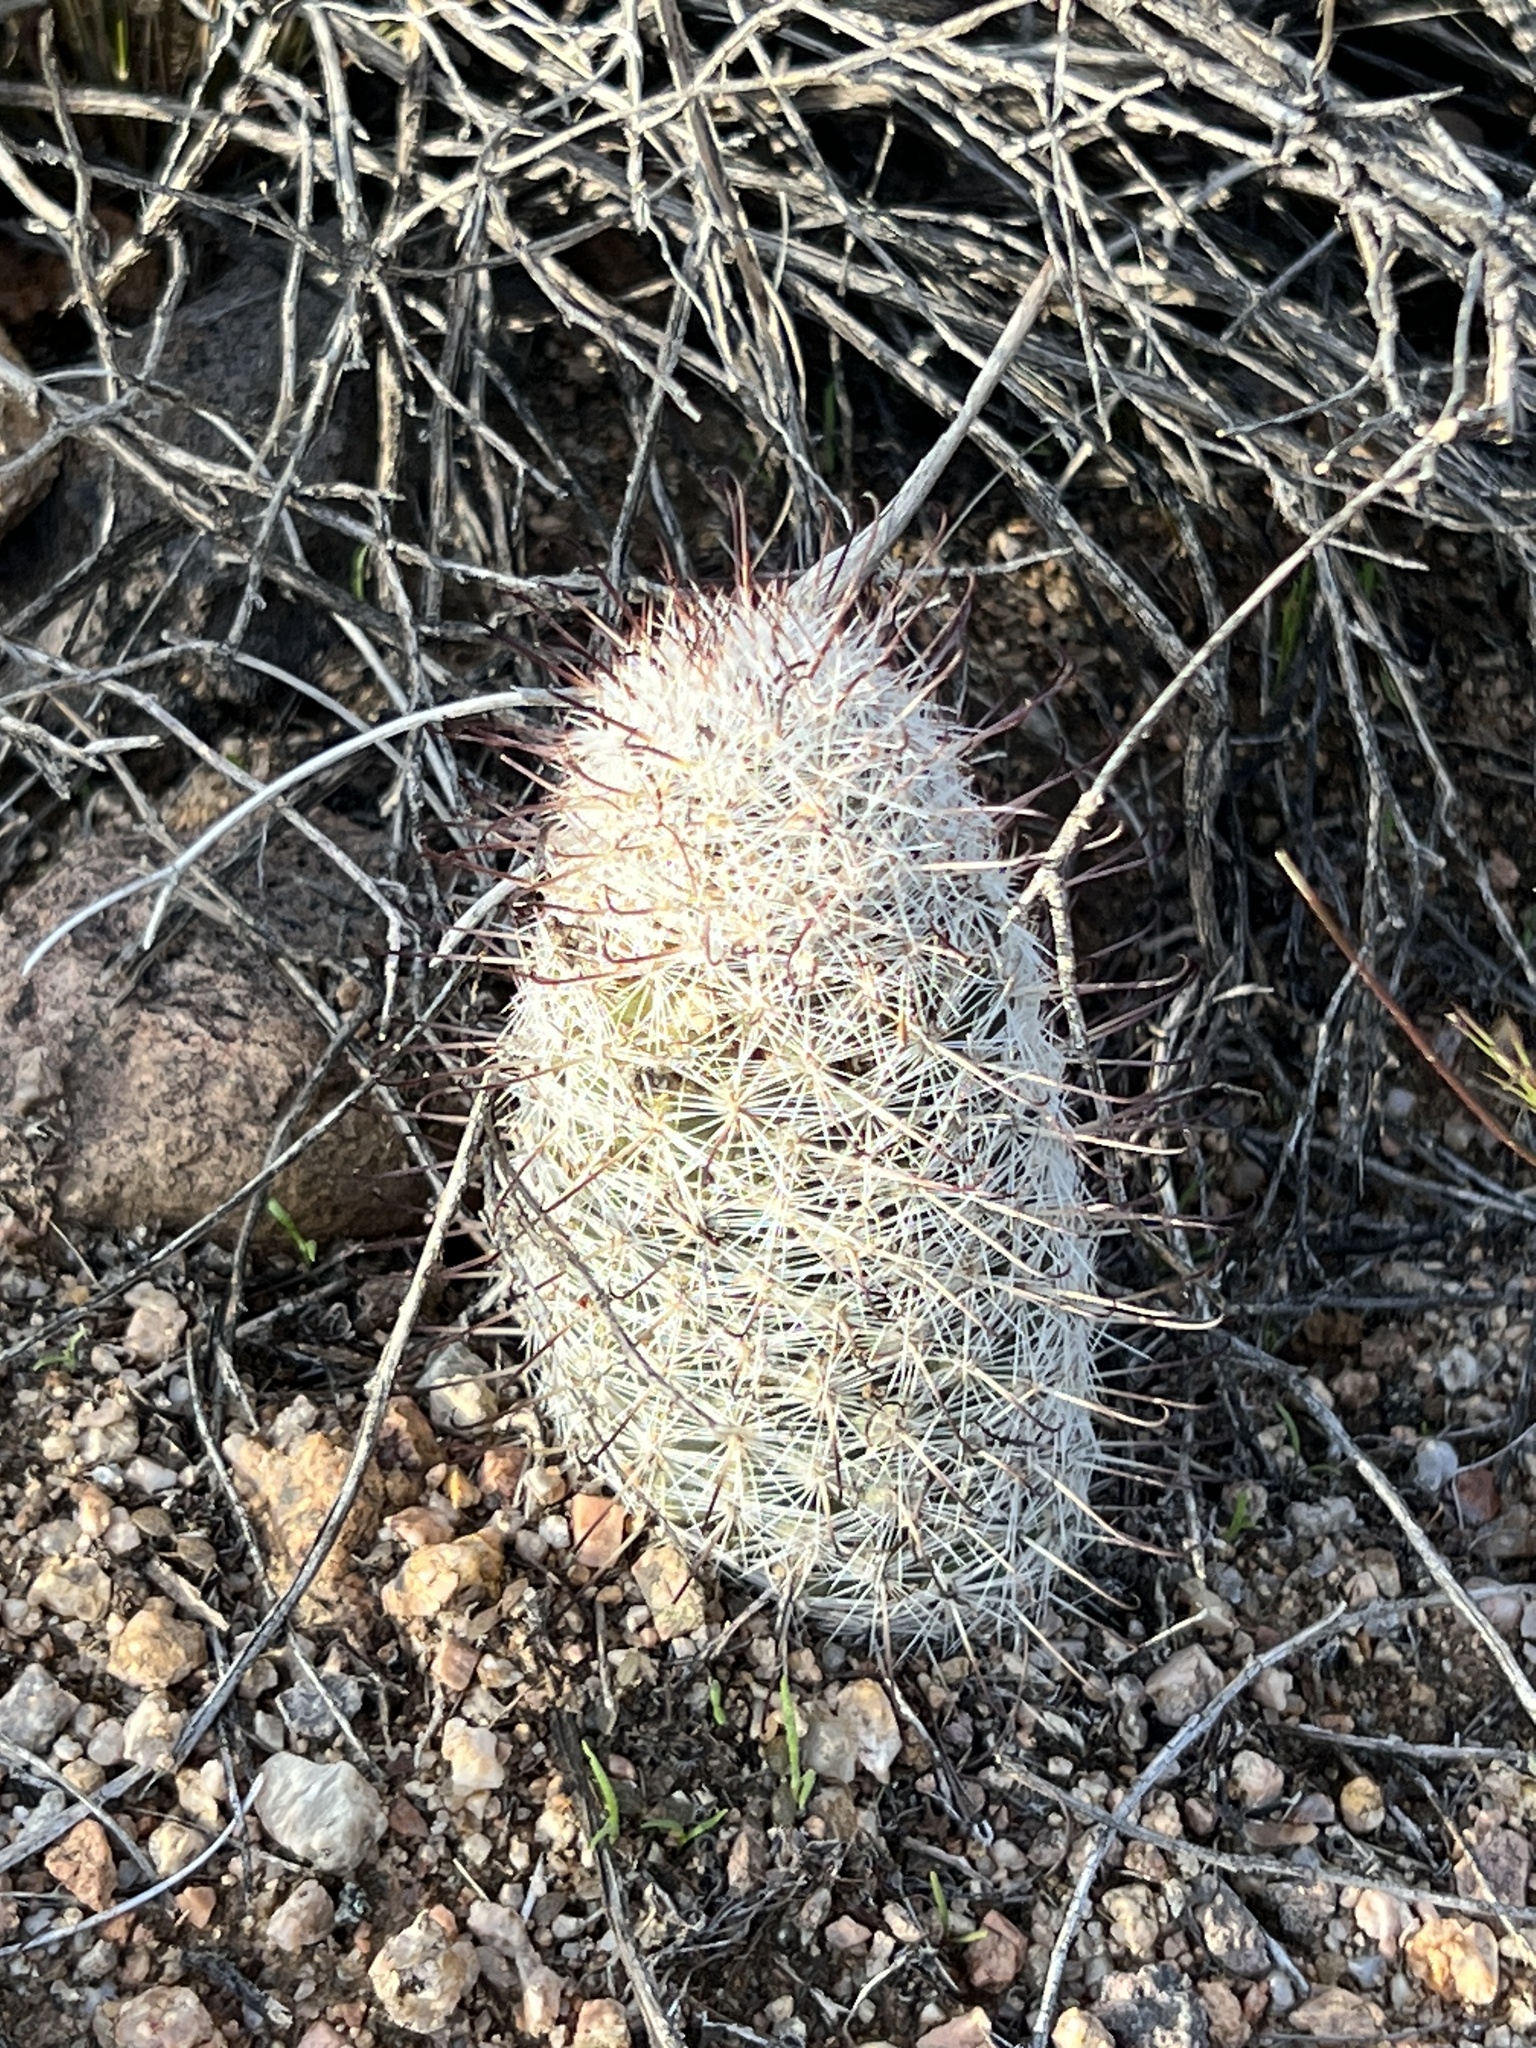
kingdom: Plantae
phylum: Tracheophyta
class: Magnoliopsida
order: Caryophyllales
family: Cactaceae
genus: Cochemiea
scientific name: Cochemiea grahamii
